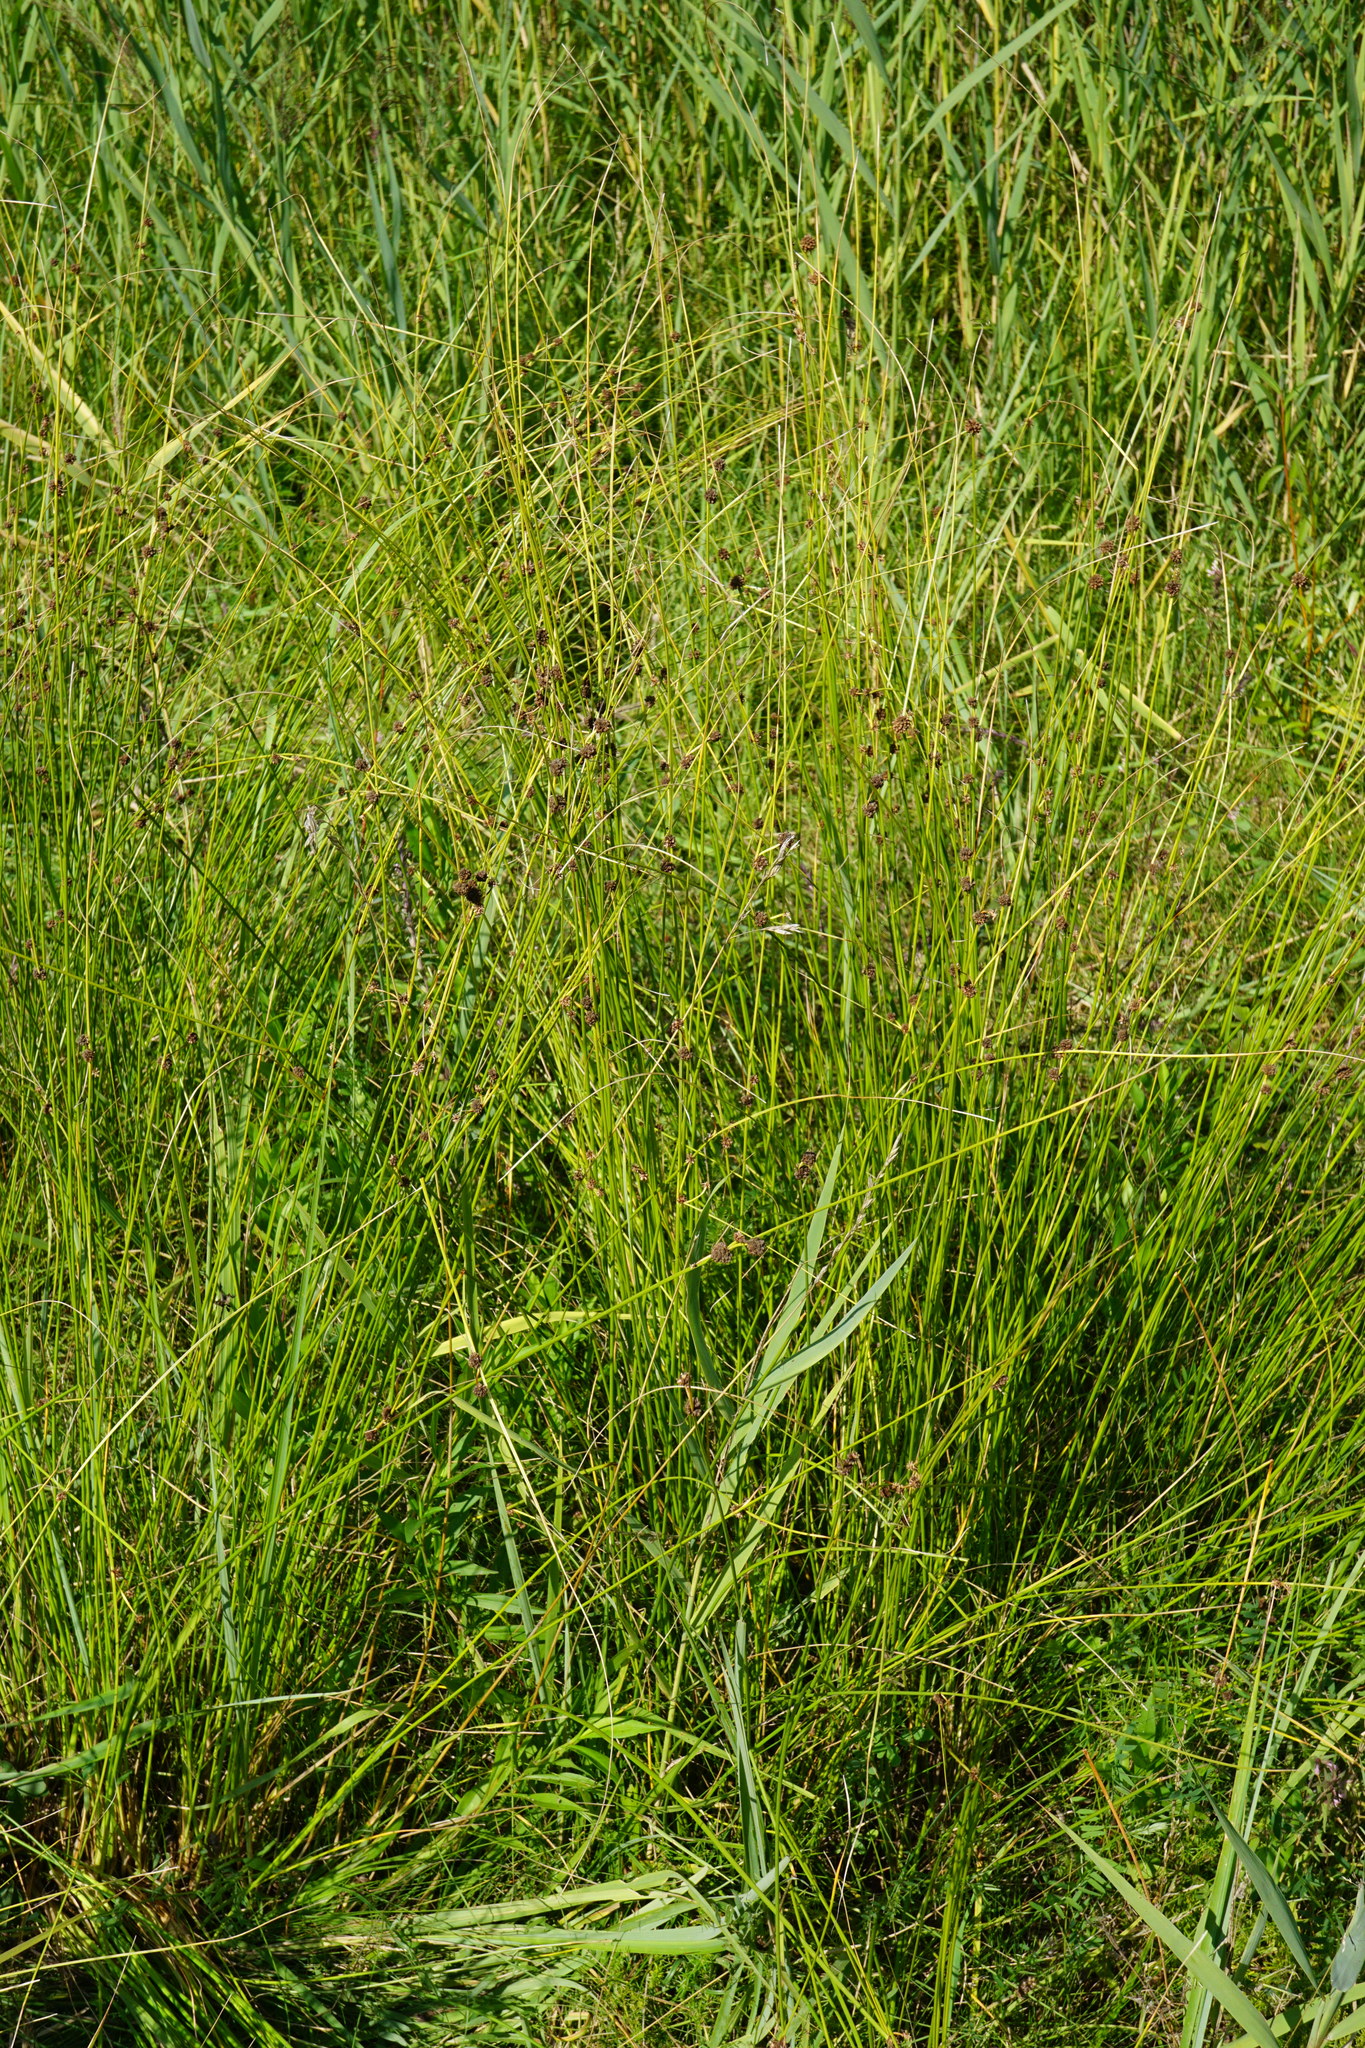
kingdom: Plantae
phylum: Tracheophyta
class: Liliopsida
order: Poales
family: Cyperaceae
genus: Scirpoides
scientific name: Scirpoides holoschoenus
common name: Round-headed club-rush
